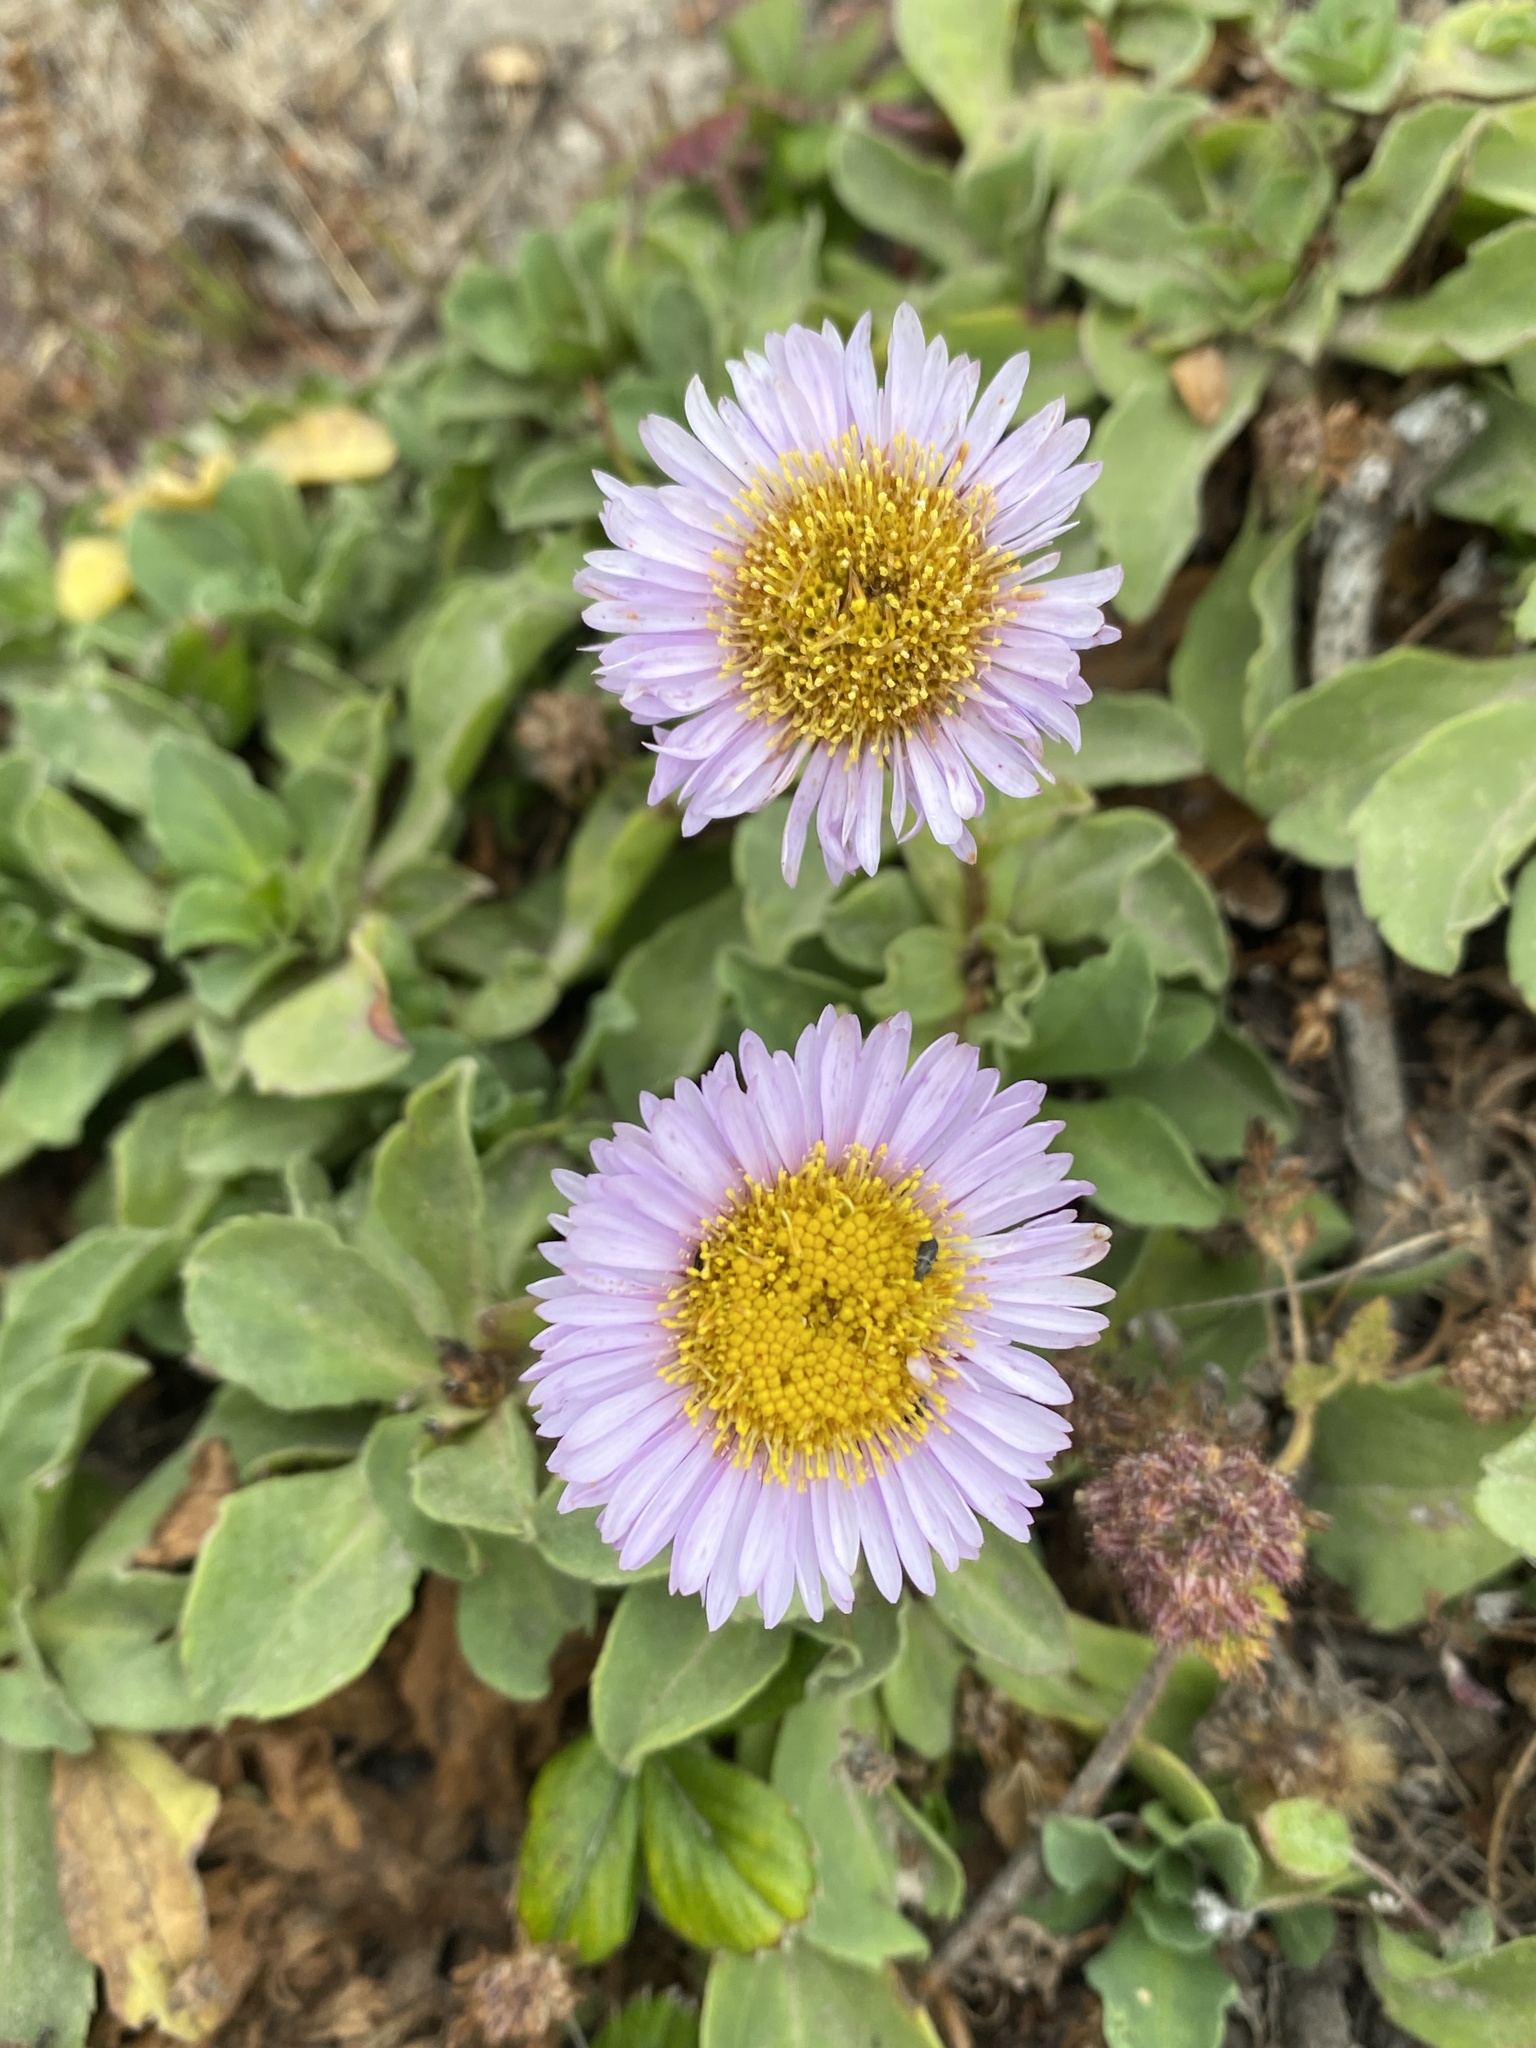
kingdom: Plantae
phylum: Tracheophyta
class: Magnoliopsida
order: Asterales
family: Asteraceae
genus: Erigeron
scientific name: Erigeron glaucus
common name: Seaside daisy
